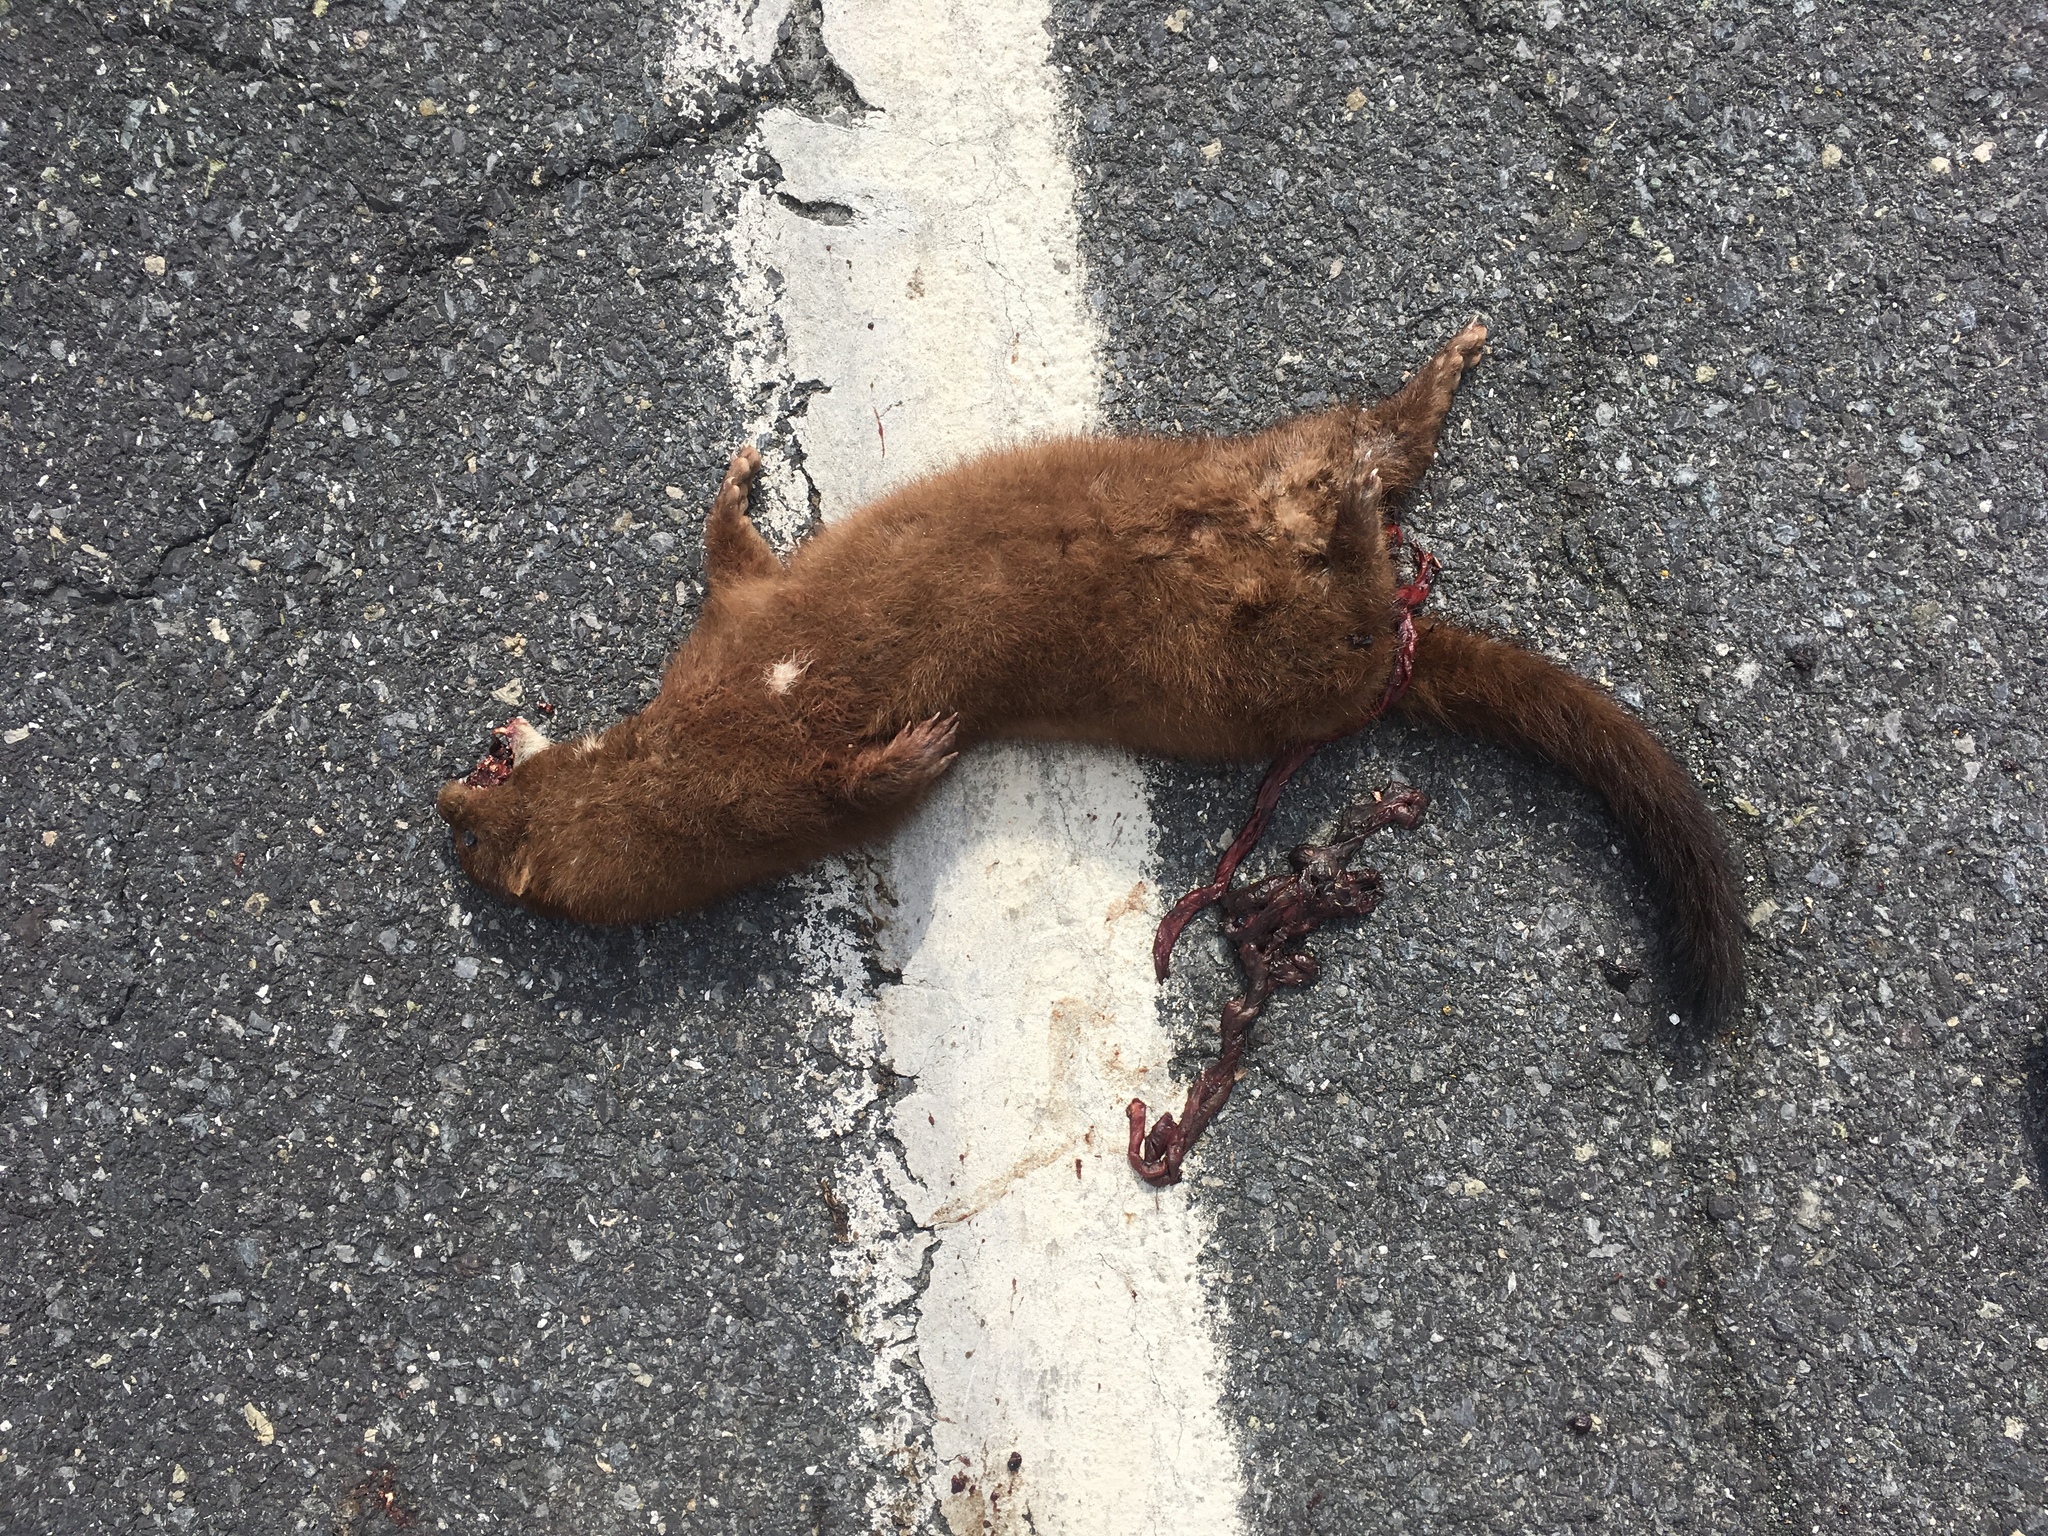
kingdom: Animalia
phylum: Chordata
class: Mammalia
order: Carnivora
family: Mustelidae
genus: Mustela
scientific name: Mustela
